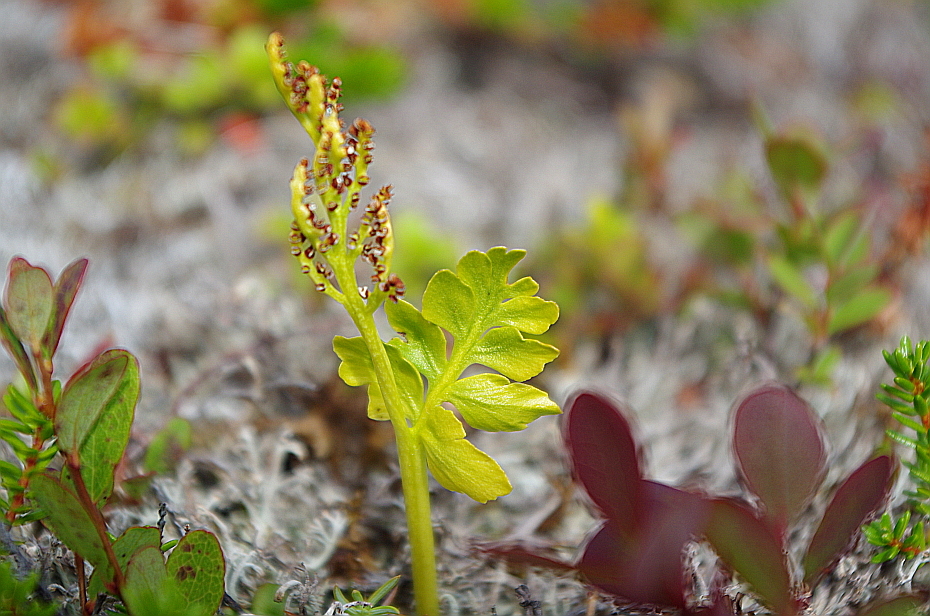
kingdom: Plantae
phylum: Tracheophyta
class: Polypodiopsida
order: Ophioglossales
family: Ophioglossaceae
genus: Botrychium
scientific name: Botrychium boreale
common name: Boreal moonwort
